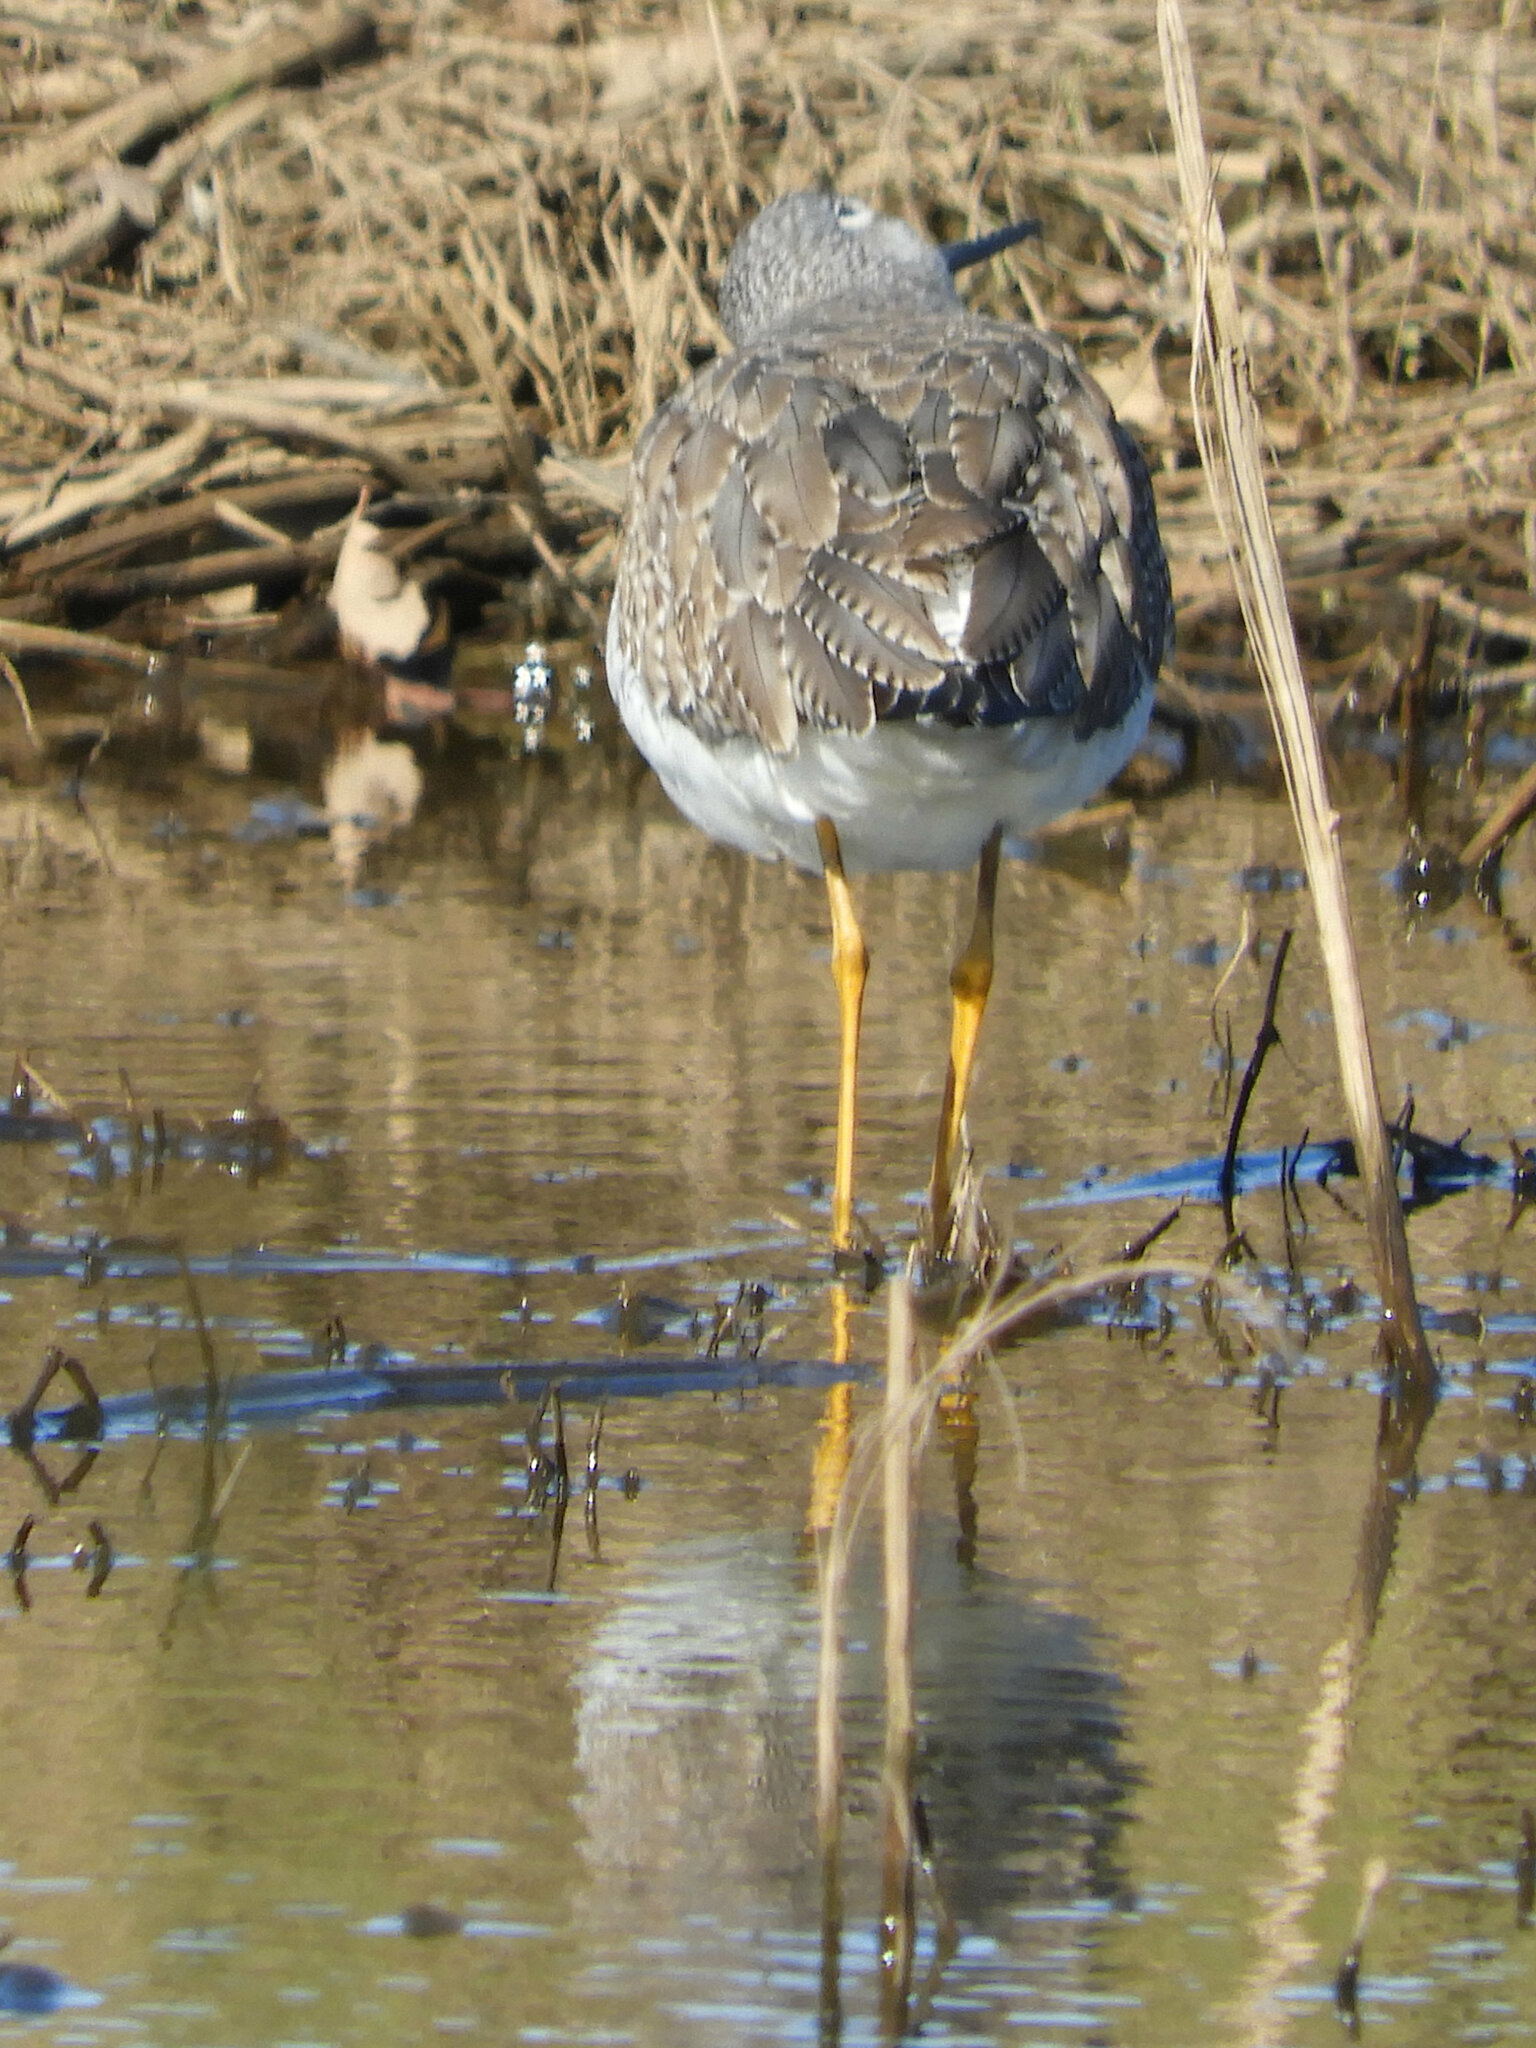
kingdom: Animalia
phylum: Chordata
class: Aves
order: Charadriiformes
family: Scolopacidae
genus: Tringa
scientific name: Tringa melanoleuca
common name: Greater yellowlegs
